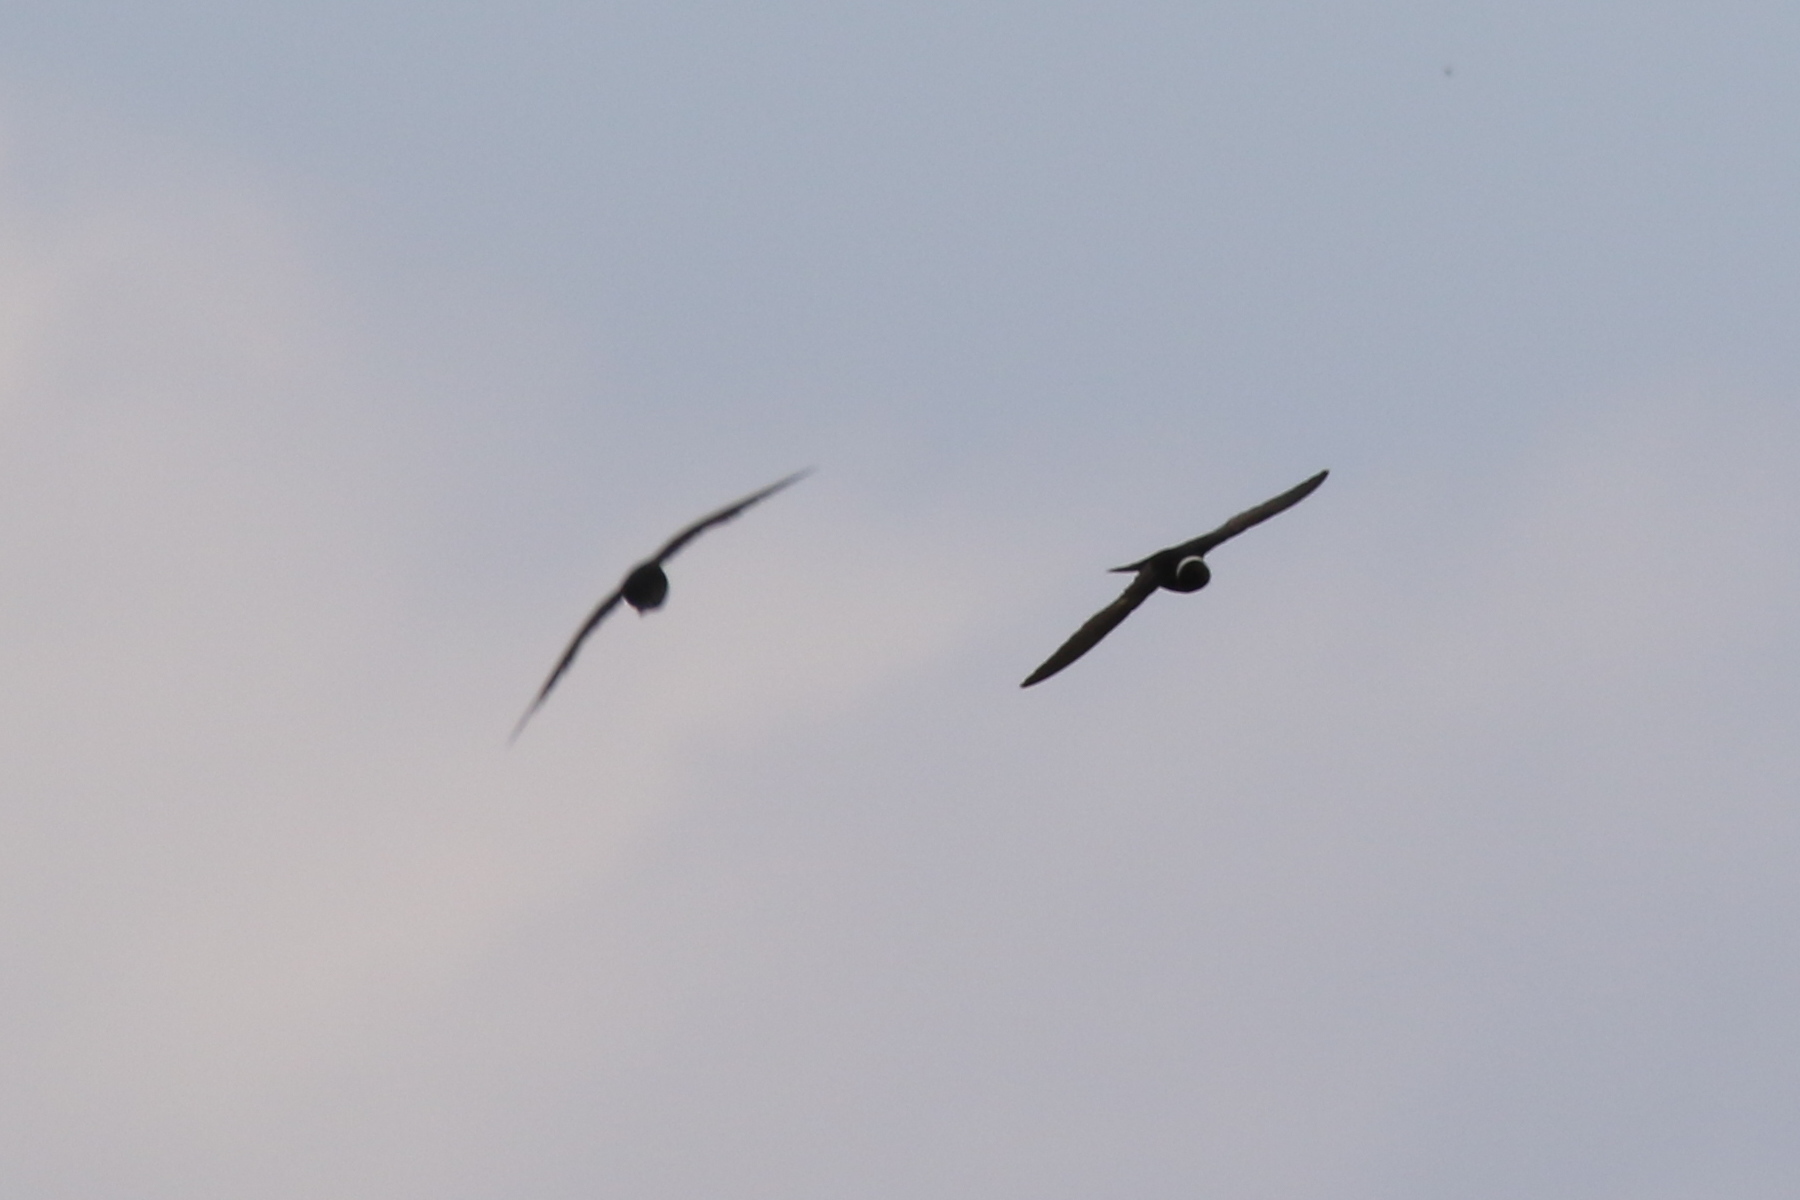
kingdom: Animalia
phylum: Chordata
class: Aves
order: Apodiformes
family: Apodidae
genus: Streptoprocne
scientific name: Streptoprocne zonaris
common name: White-collared swift
